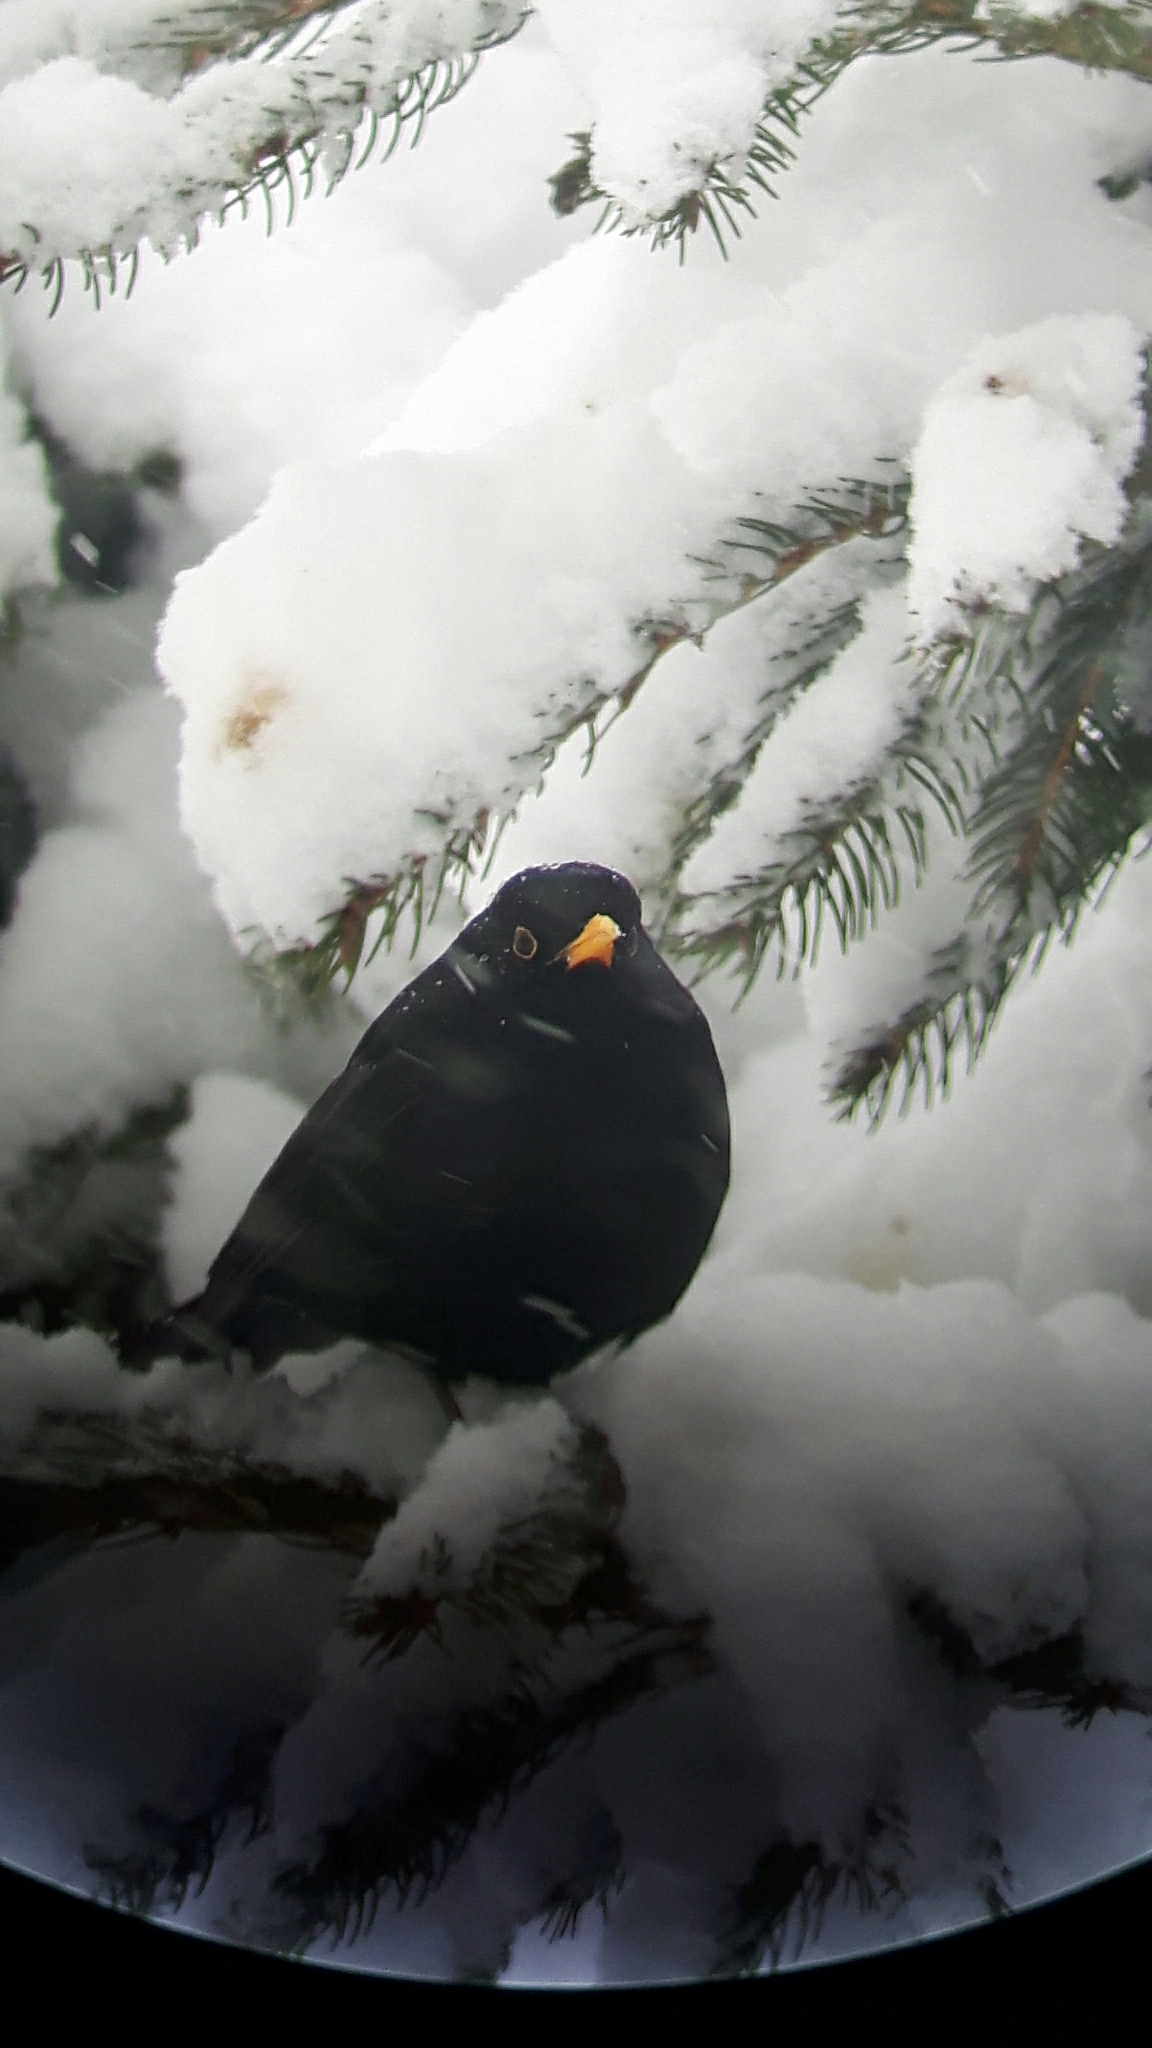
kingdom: Animalia
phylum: Chordata
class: Aves
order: Passeriformes
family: Turdidae
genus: Turdus
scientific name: Turdus merula
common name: Common blackbird
